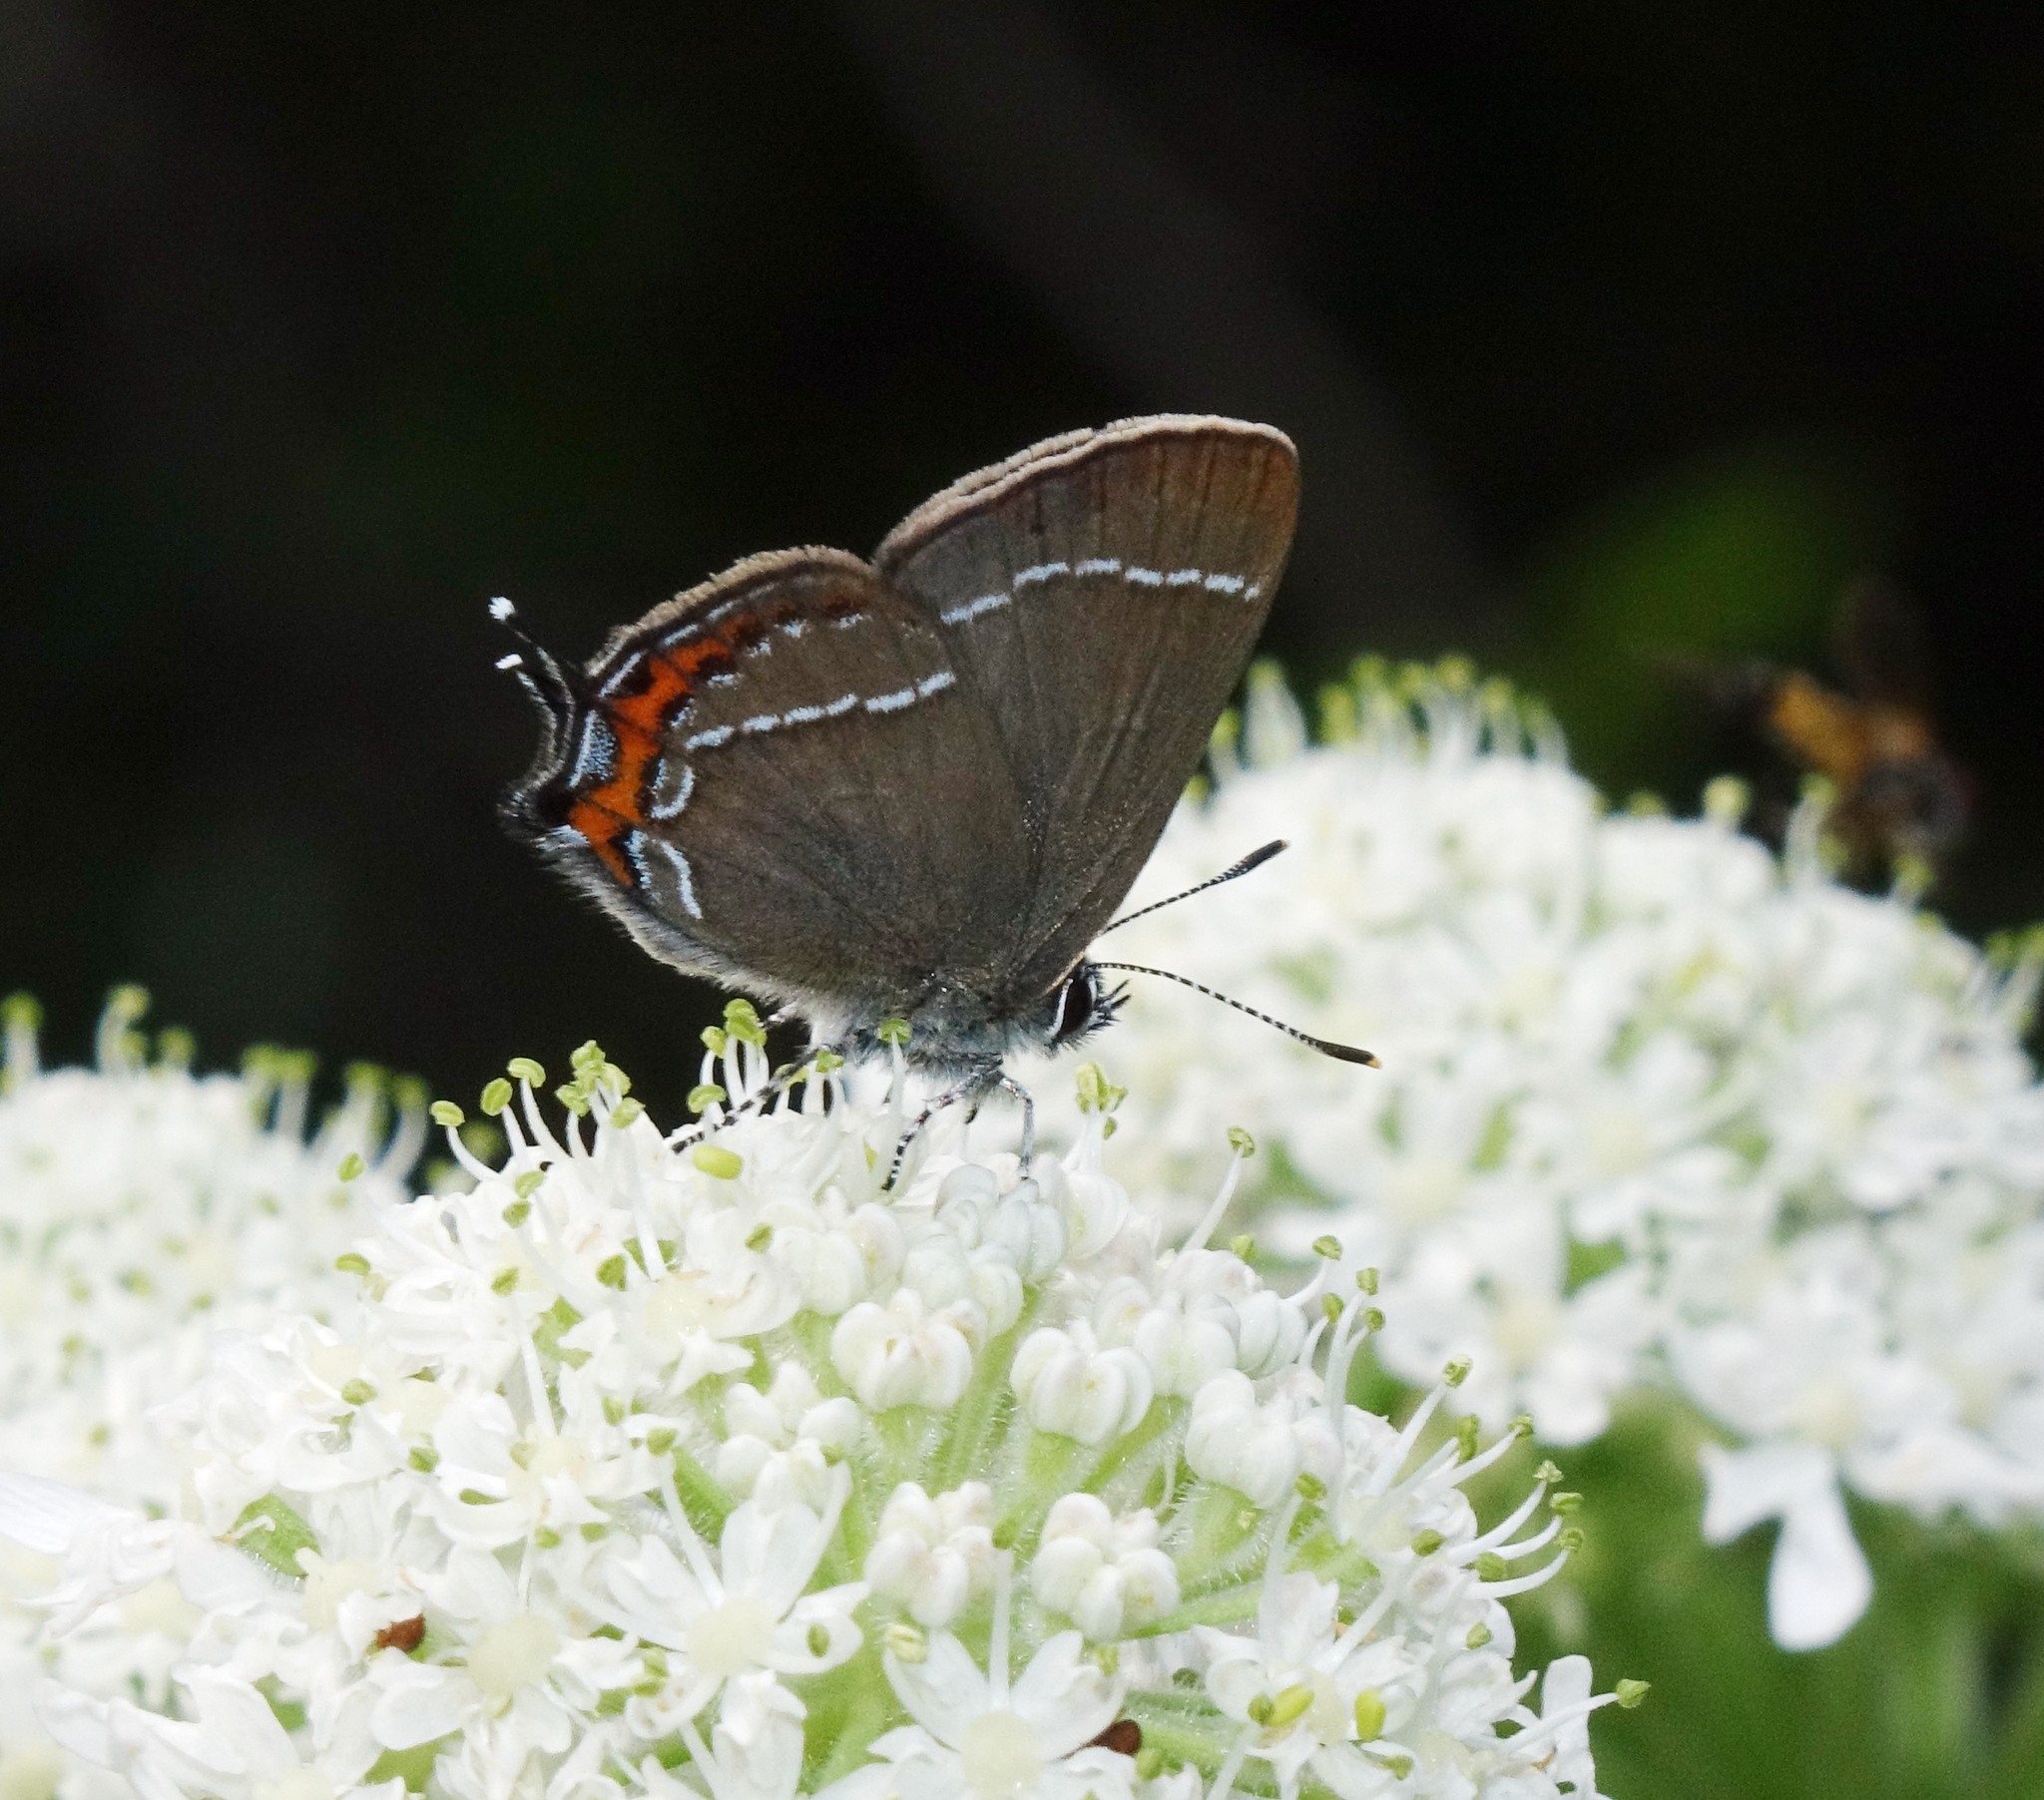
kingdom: Plantae
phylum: Tracheophyta
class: Magnoliopsida
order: Apiales
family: Apiaceae
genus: Heracleum
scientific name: Heracleum dissectum
